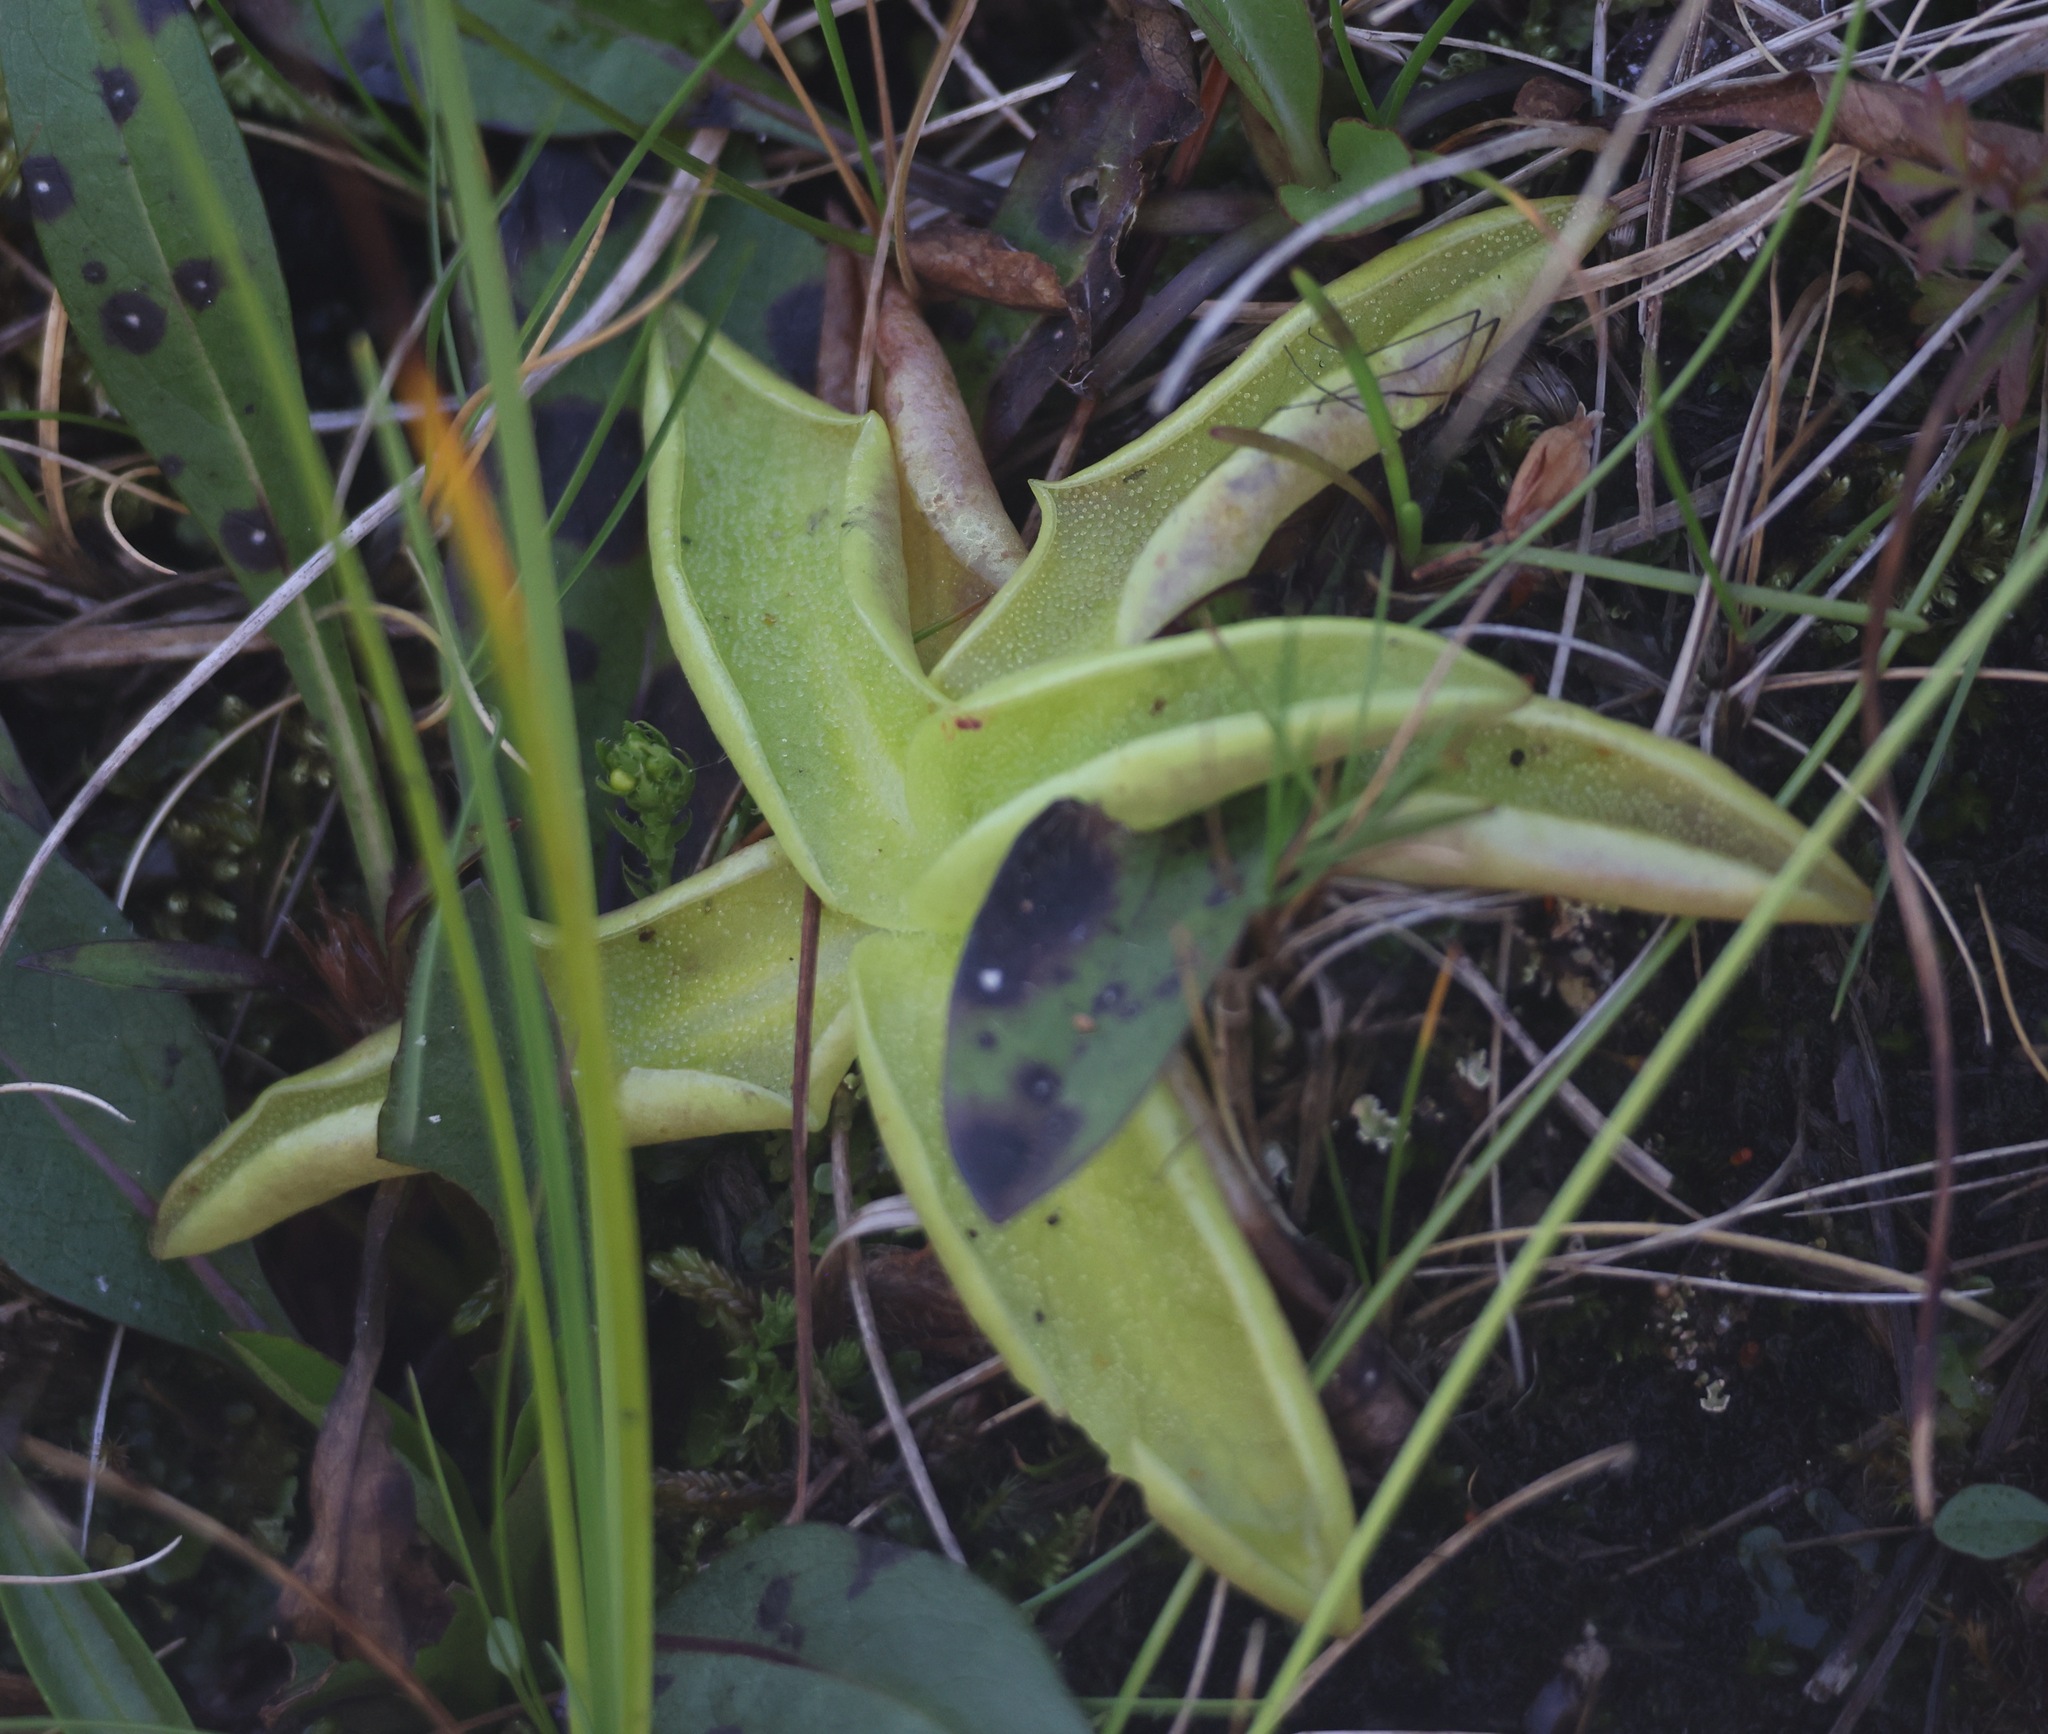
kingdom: Plantae
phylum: Tracheophyta
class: Magnoliopsida
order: Lamiales
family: Lentibulariaceae
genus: Pinguicula
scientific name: Pinguicula vulgaris
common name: Common butterwort
